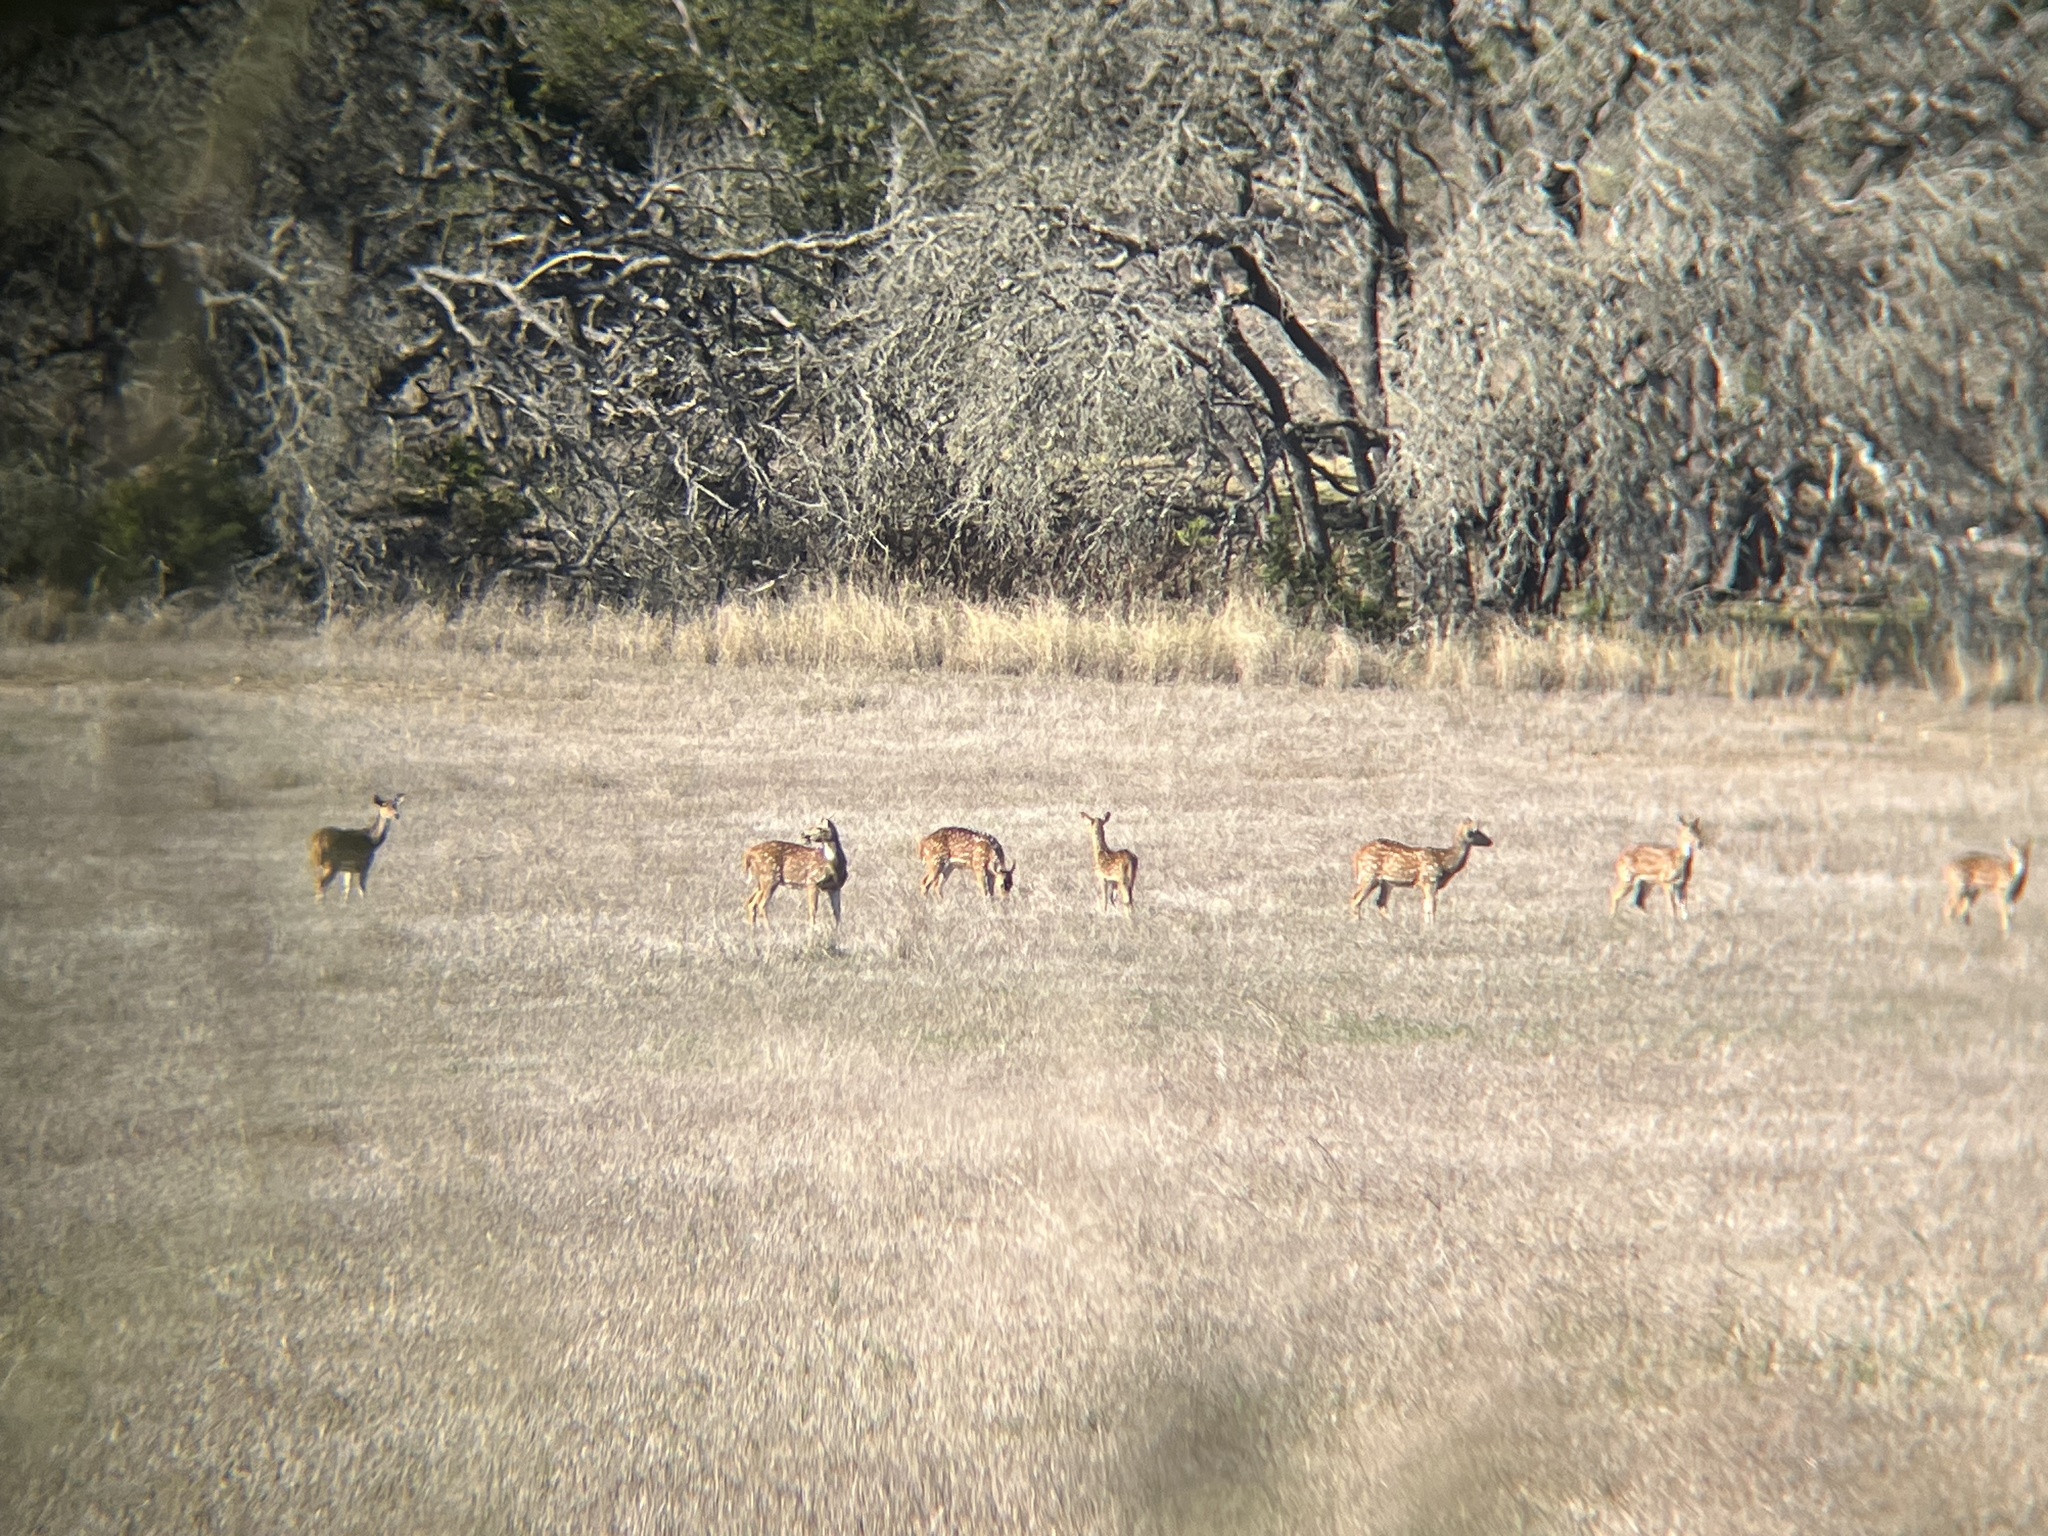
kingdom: Animalia
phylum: Chordata
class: Mammalia
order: Artiodactyla
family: Cervidae
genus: Axis
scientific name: Axis axis
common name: Chital
